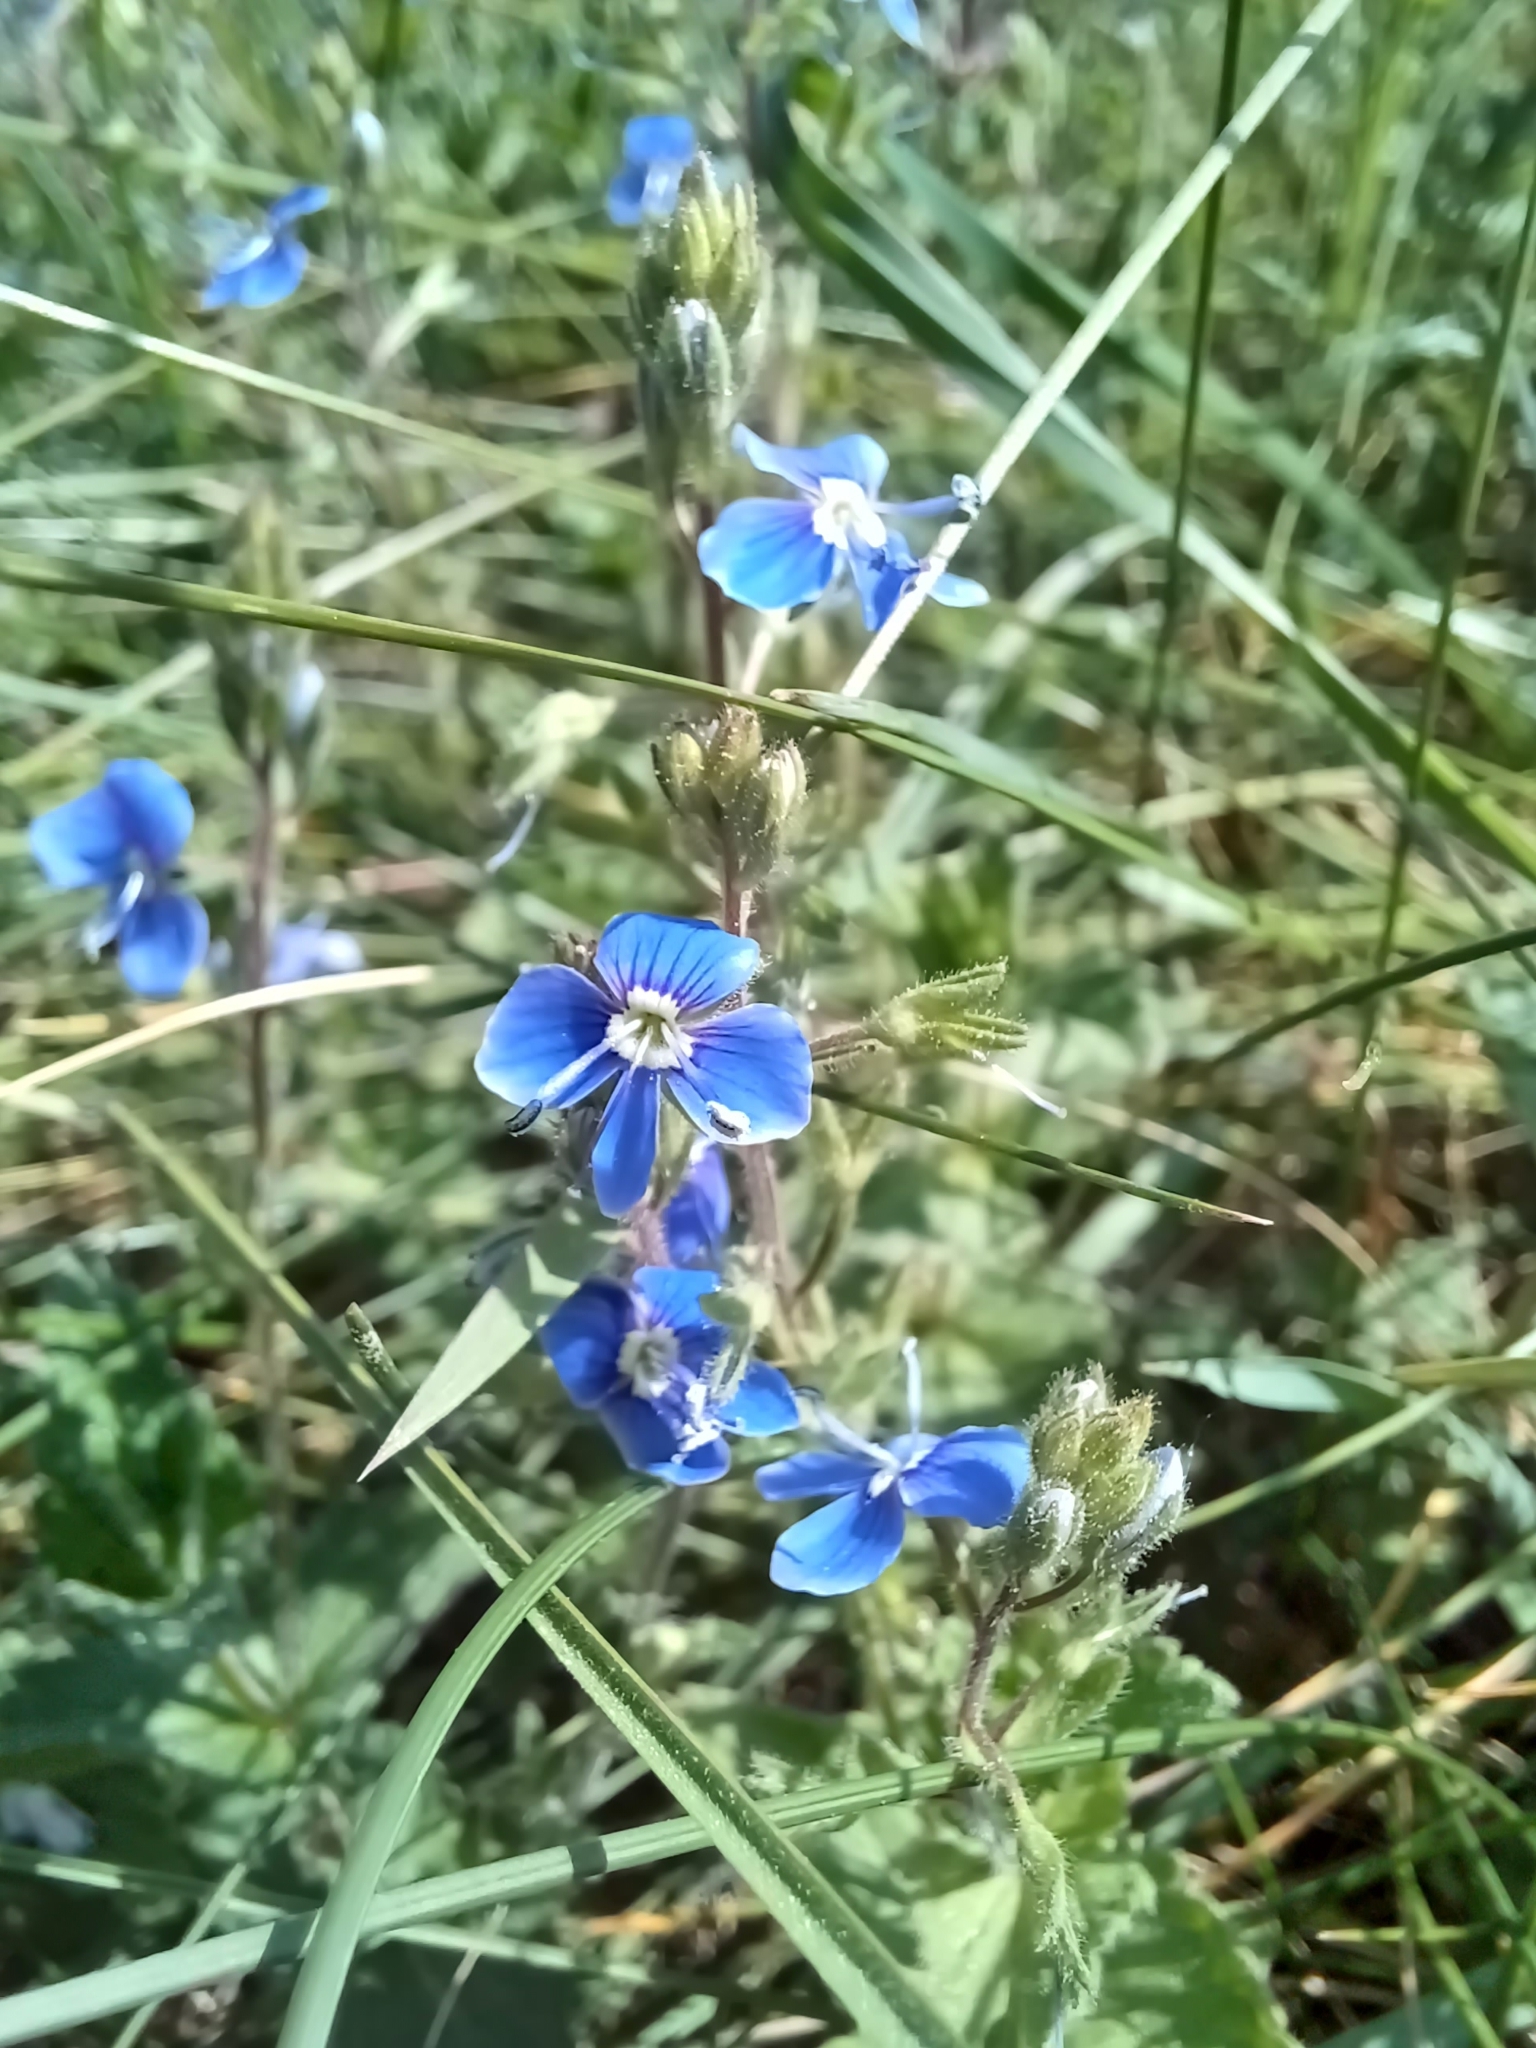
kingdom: Plantae
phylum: Tracheophyta
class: Magnoliopsida
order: Lamiales
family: Plantaginaceae
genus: Veronica
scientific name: Veronica chamaedrys
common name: Germander speedwell
